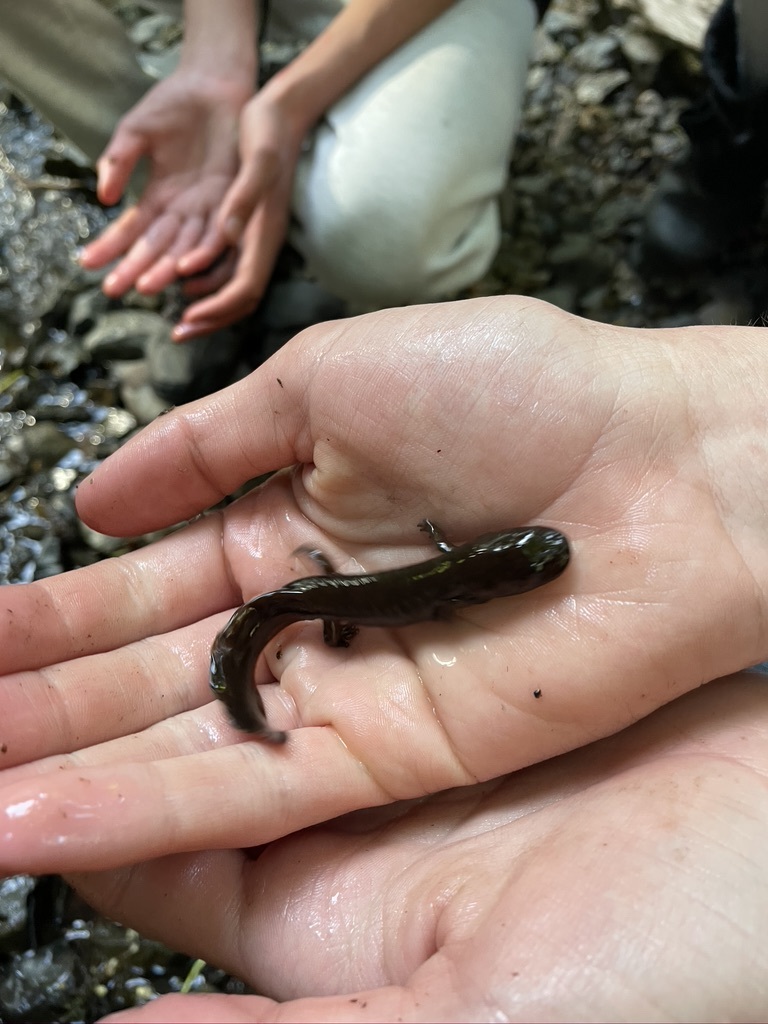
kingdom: Animalia
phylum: Chordata
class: Amphibia
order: Caudata
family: Ambystomatidae
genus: Dicamptodon
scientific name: Dicamptodon tenebrosus
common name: Coastal giant salamander
